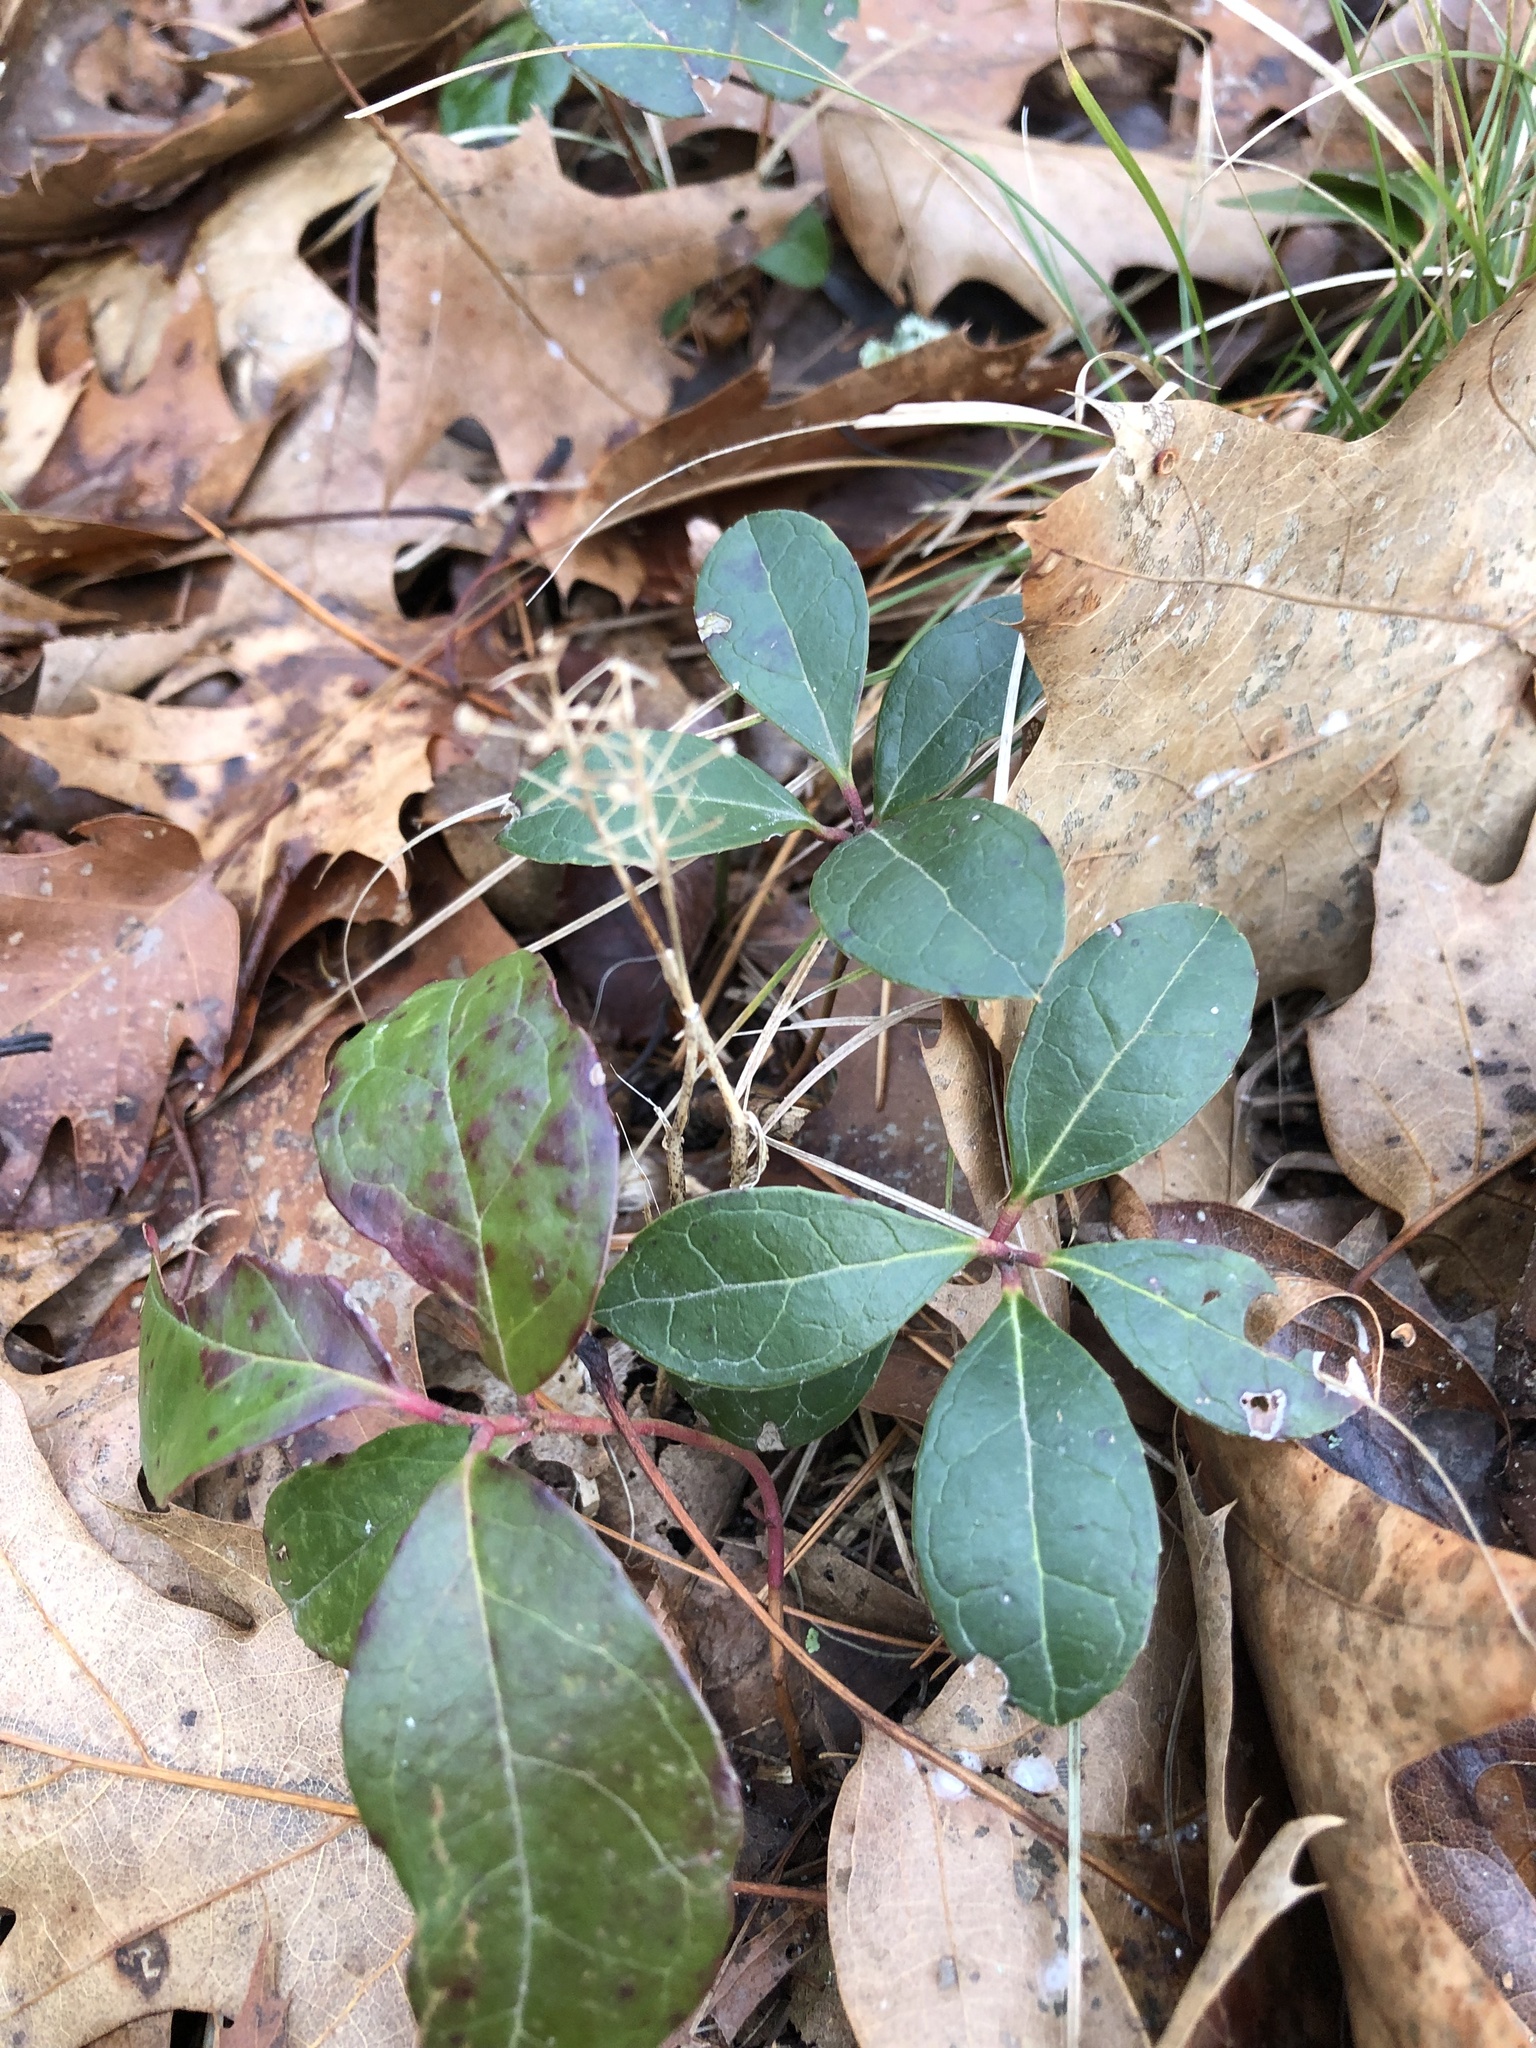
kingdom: Plantae
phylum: Tracheophyta
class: Magnoliopsida
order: Ericales
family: Ericaceae
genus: Gaultheria
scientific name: Gaultheria procumbens
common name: Checkerberry
